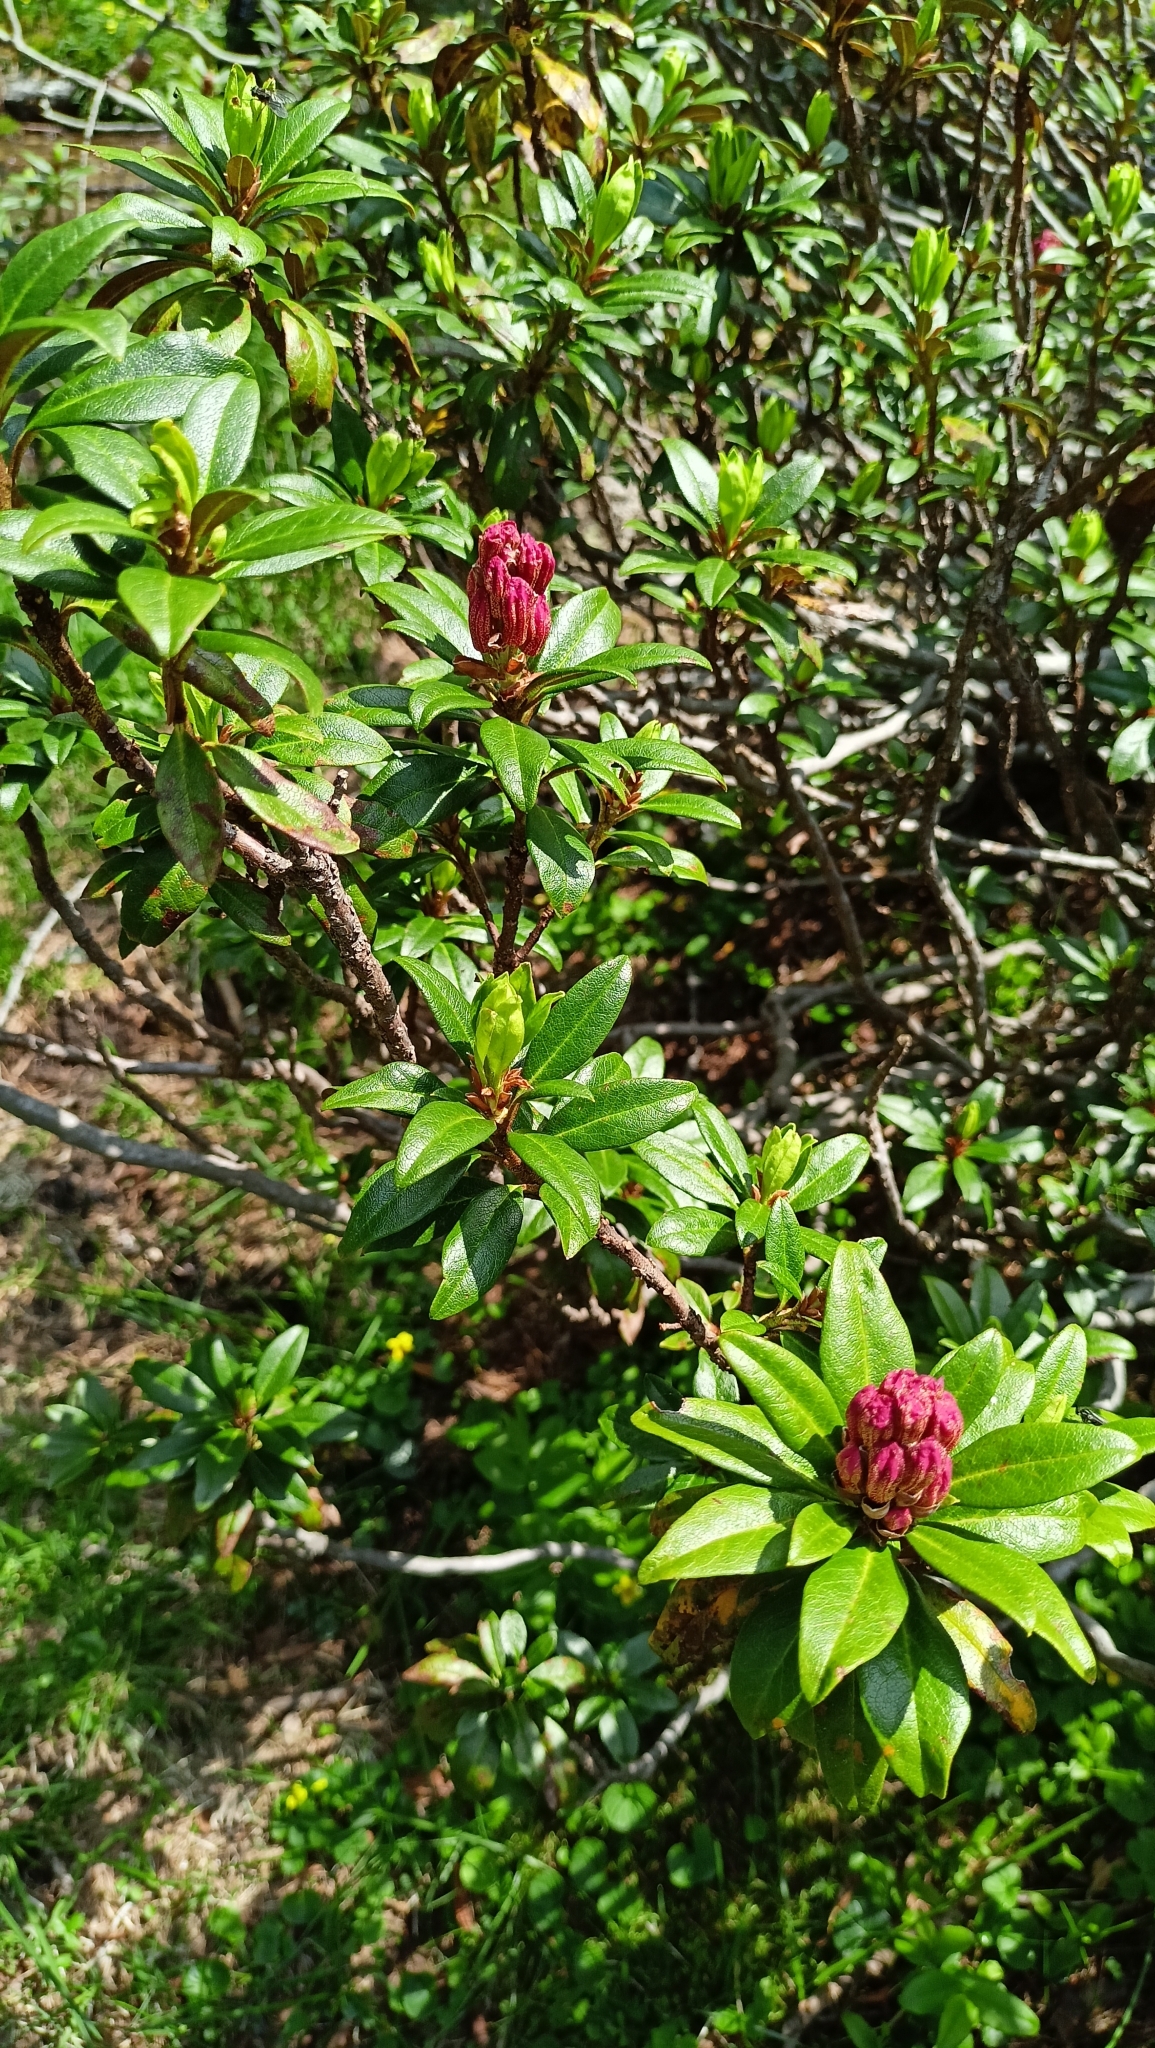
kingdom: Plantae
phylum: Tracheophyta
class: Magnoliopsida
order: Ericales
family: Ericaceae
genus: Rhododendron
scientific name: Rhododendron ferrugineum
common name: Alpenrose
